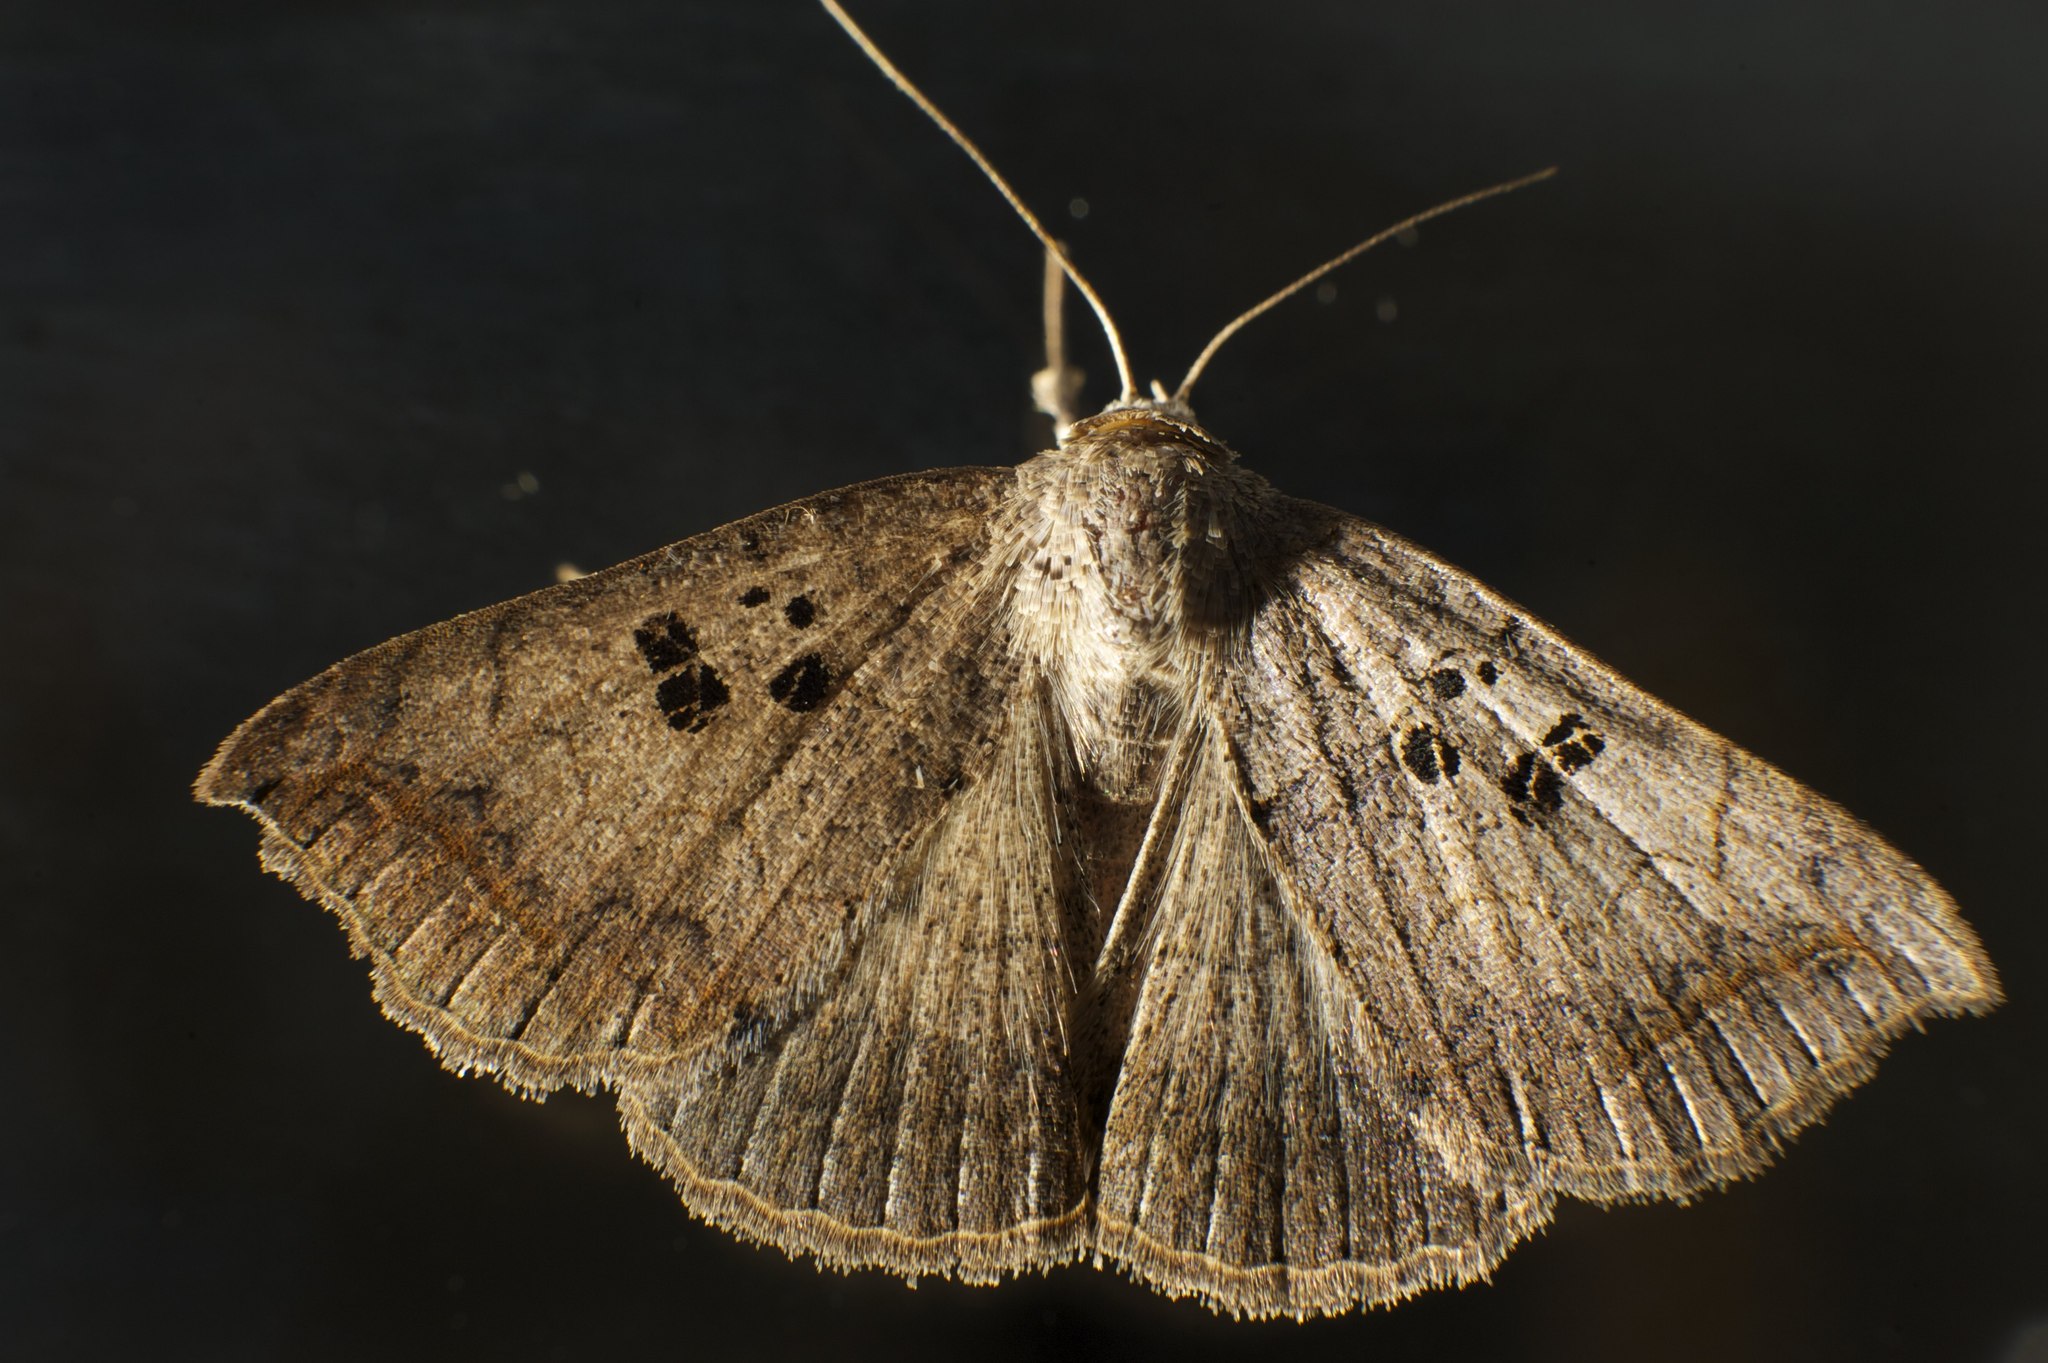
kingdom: Animalia
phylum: Arthropoda
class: Insecta
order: Lepidoptera
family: Erebidae
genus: Blasticorhinus
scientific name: Blasticorhinus rivulosa
